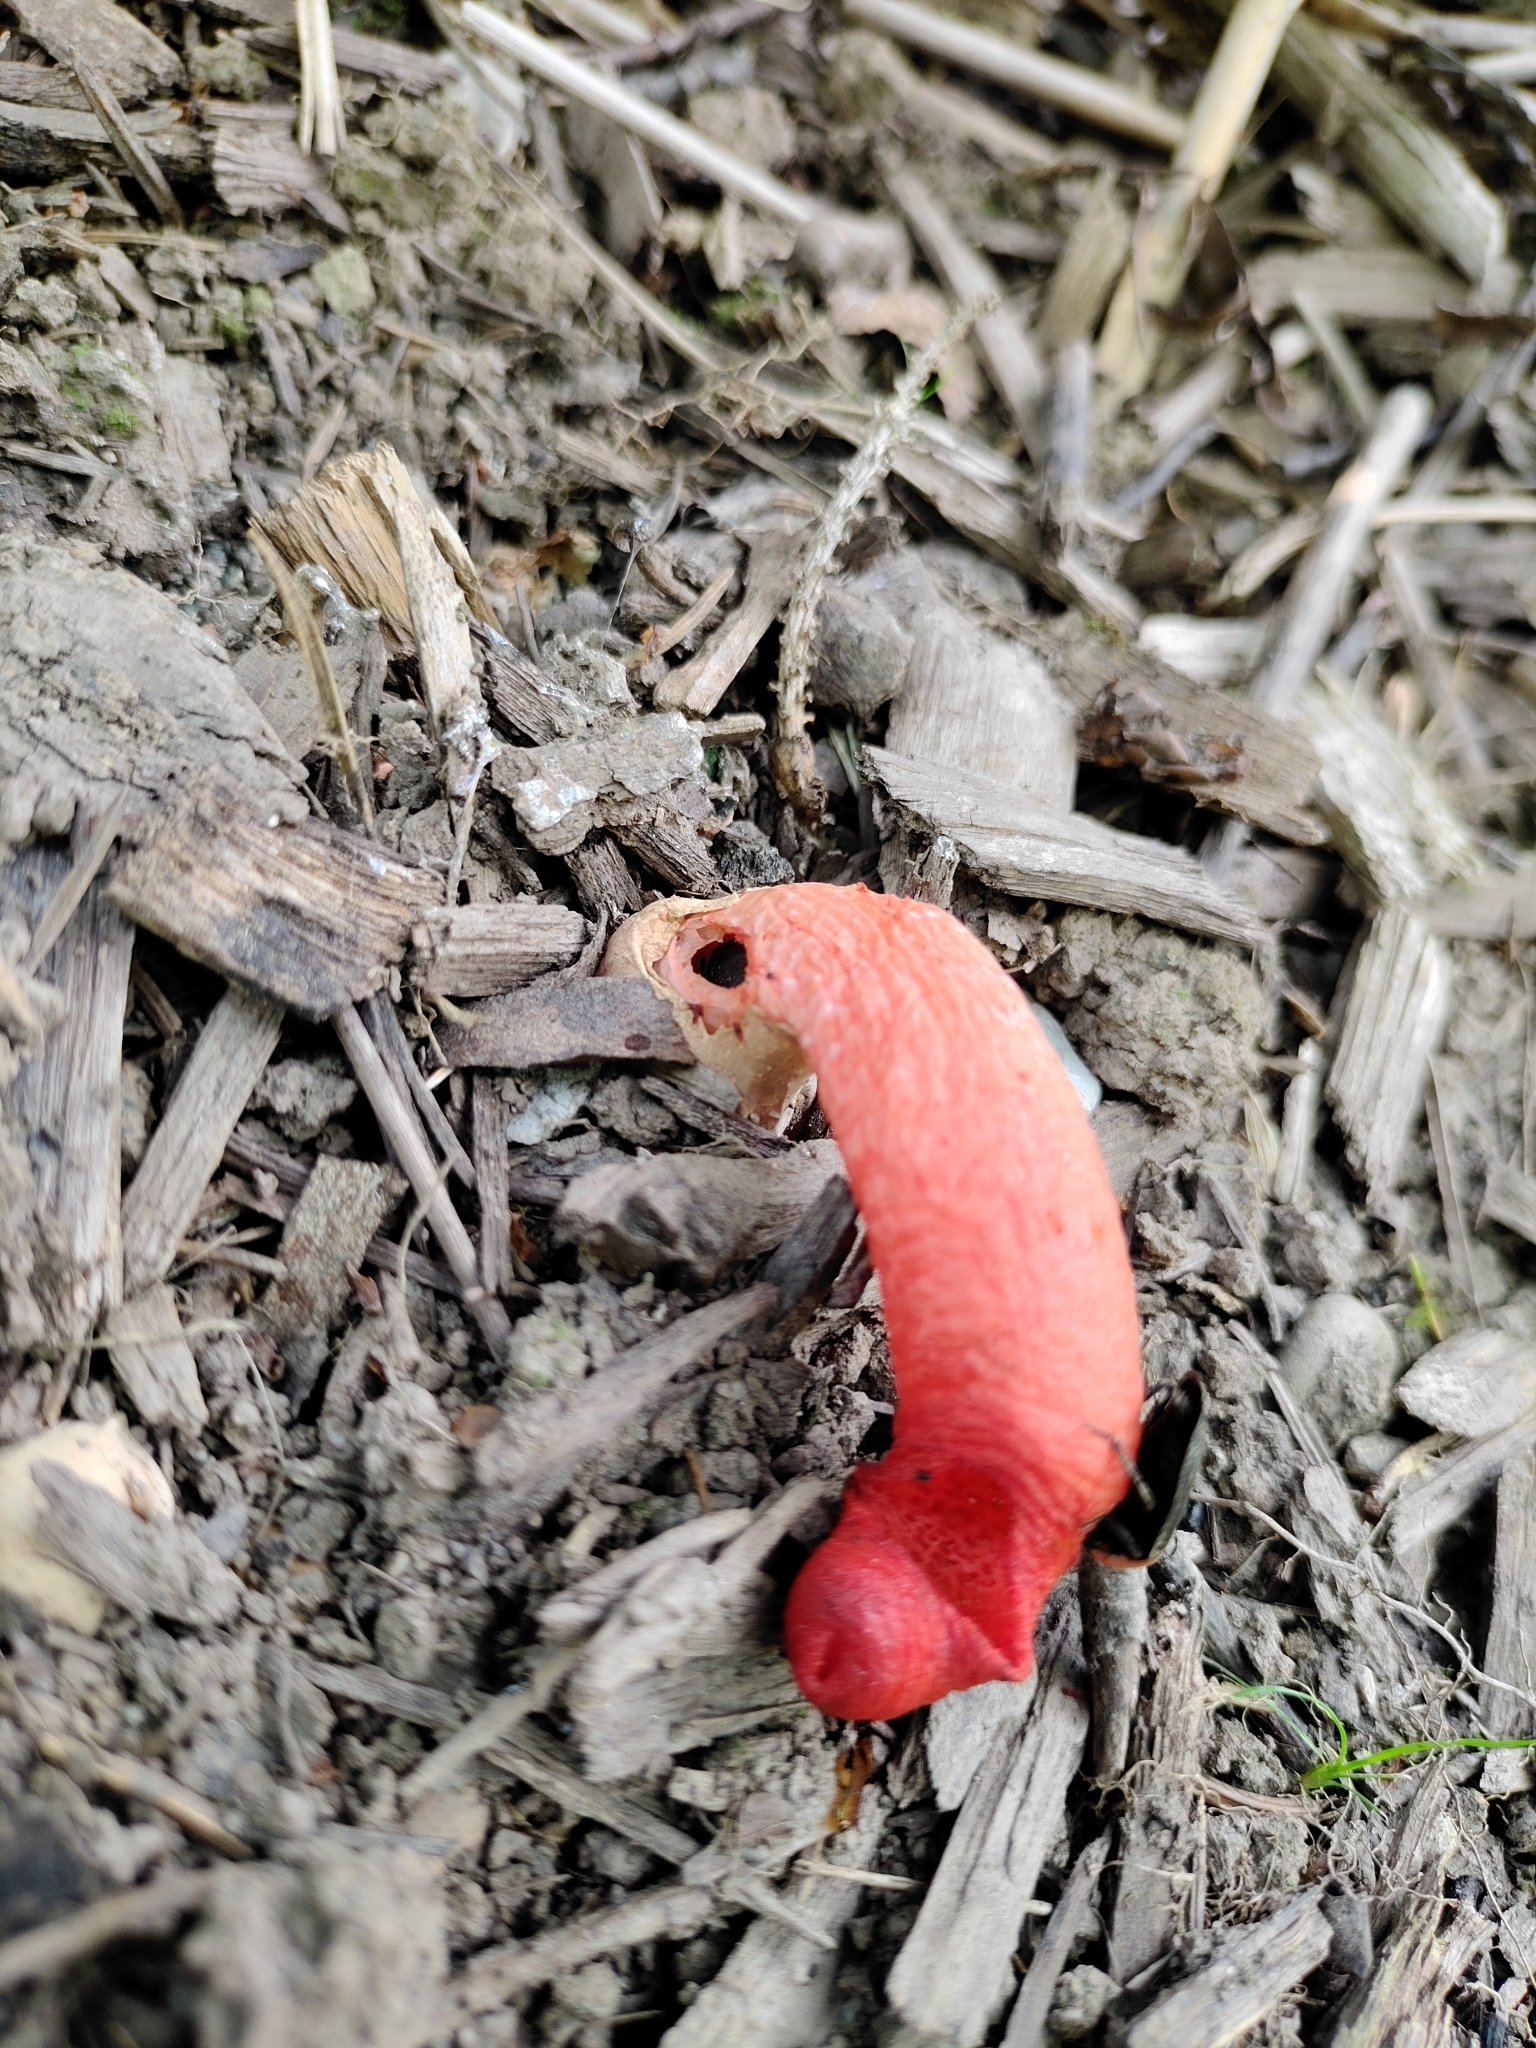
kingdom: Fungi
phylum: Basidiomycota
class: Agaricomycetes
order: Phallales
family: Phallaceae
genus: Mutinus
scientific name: Mutinus elegans
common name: Devil's dipstick
